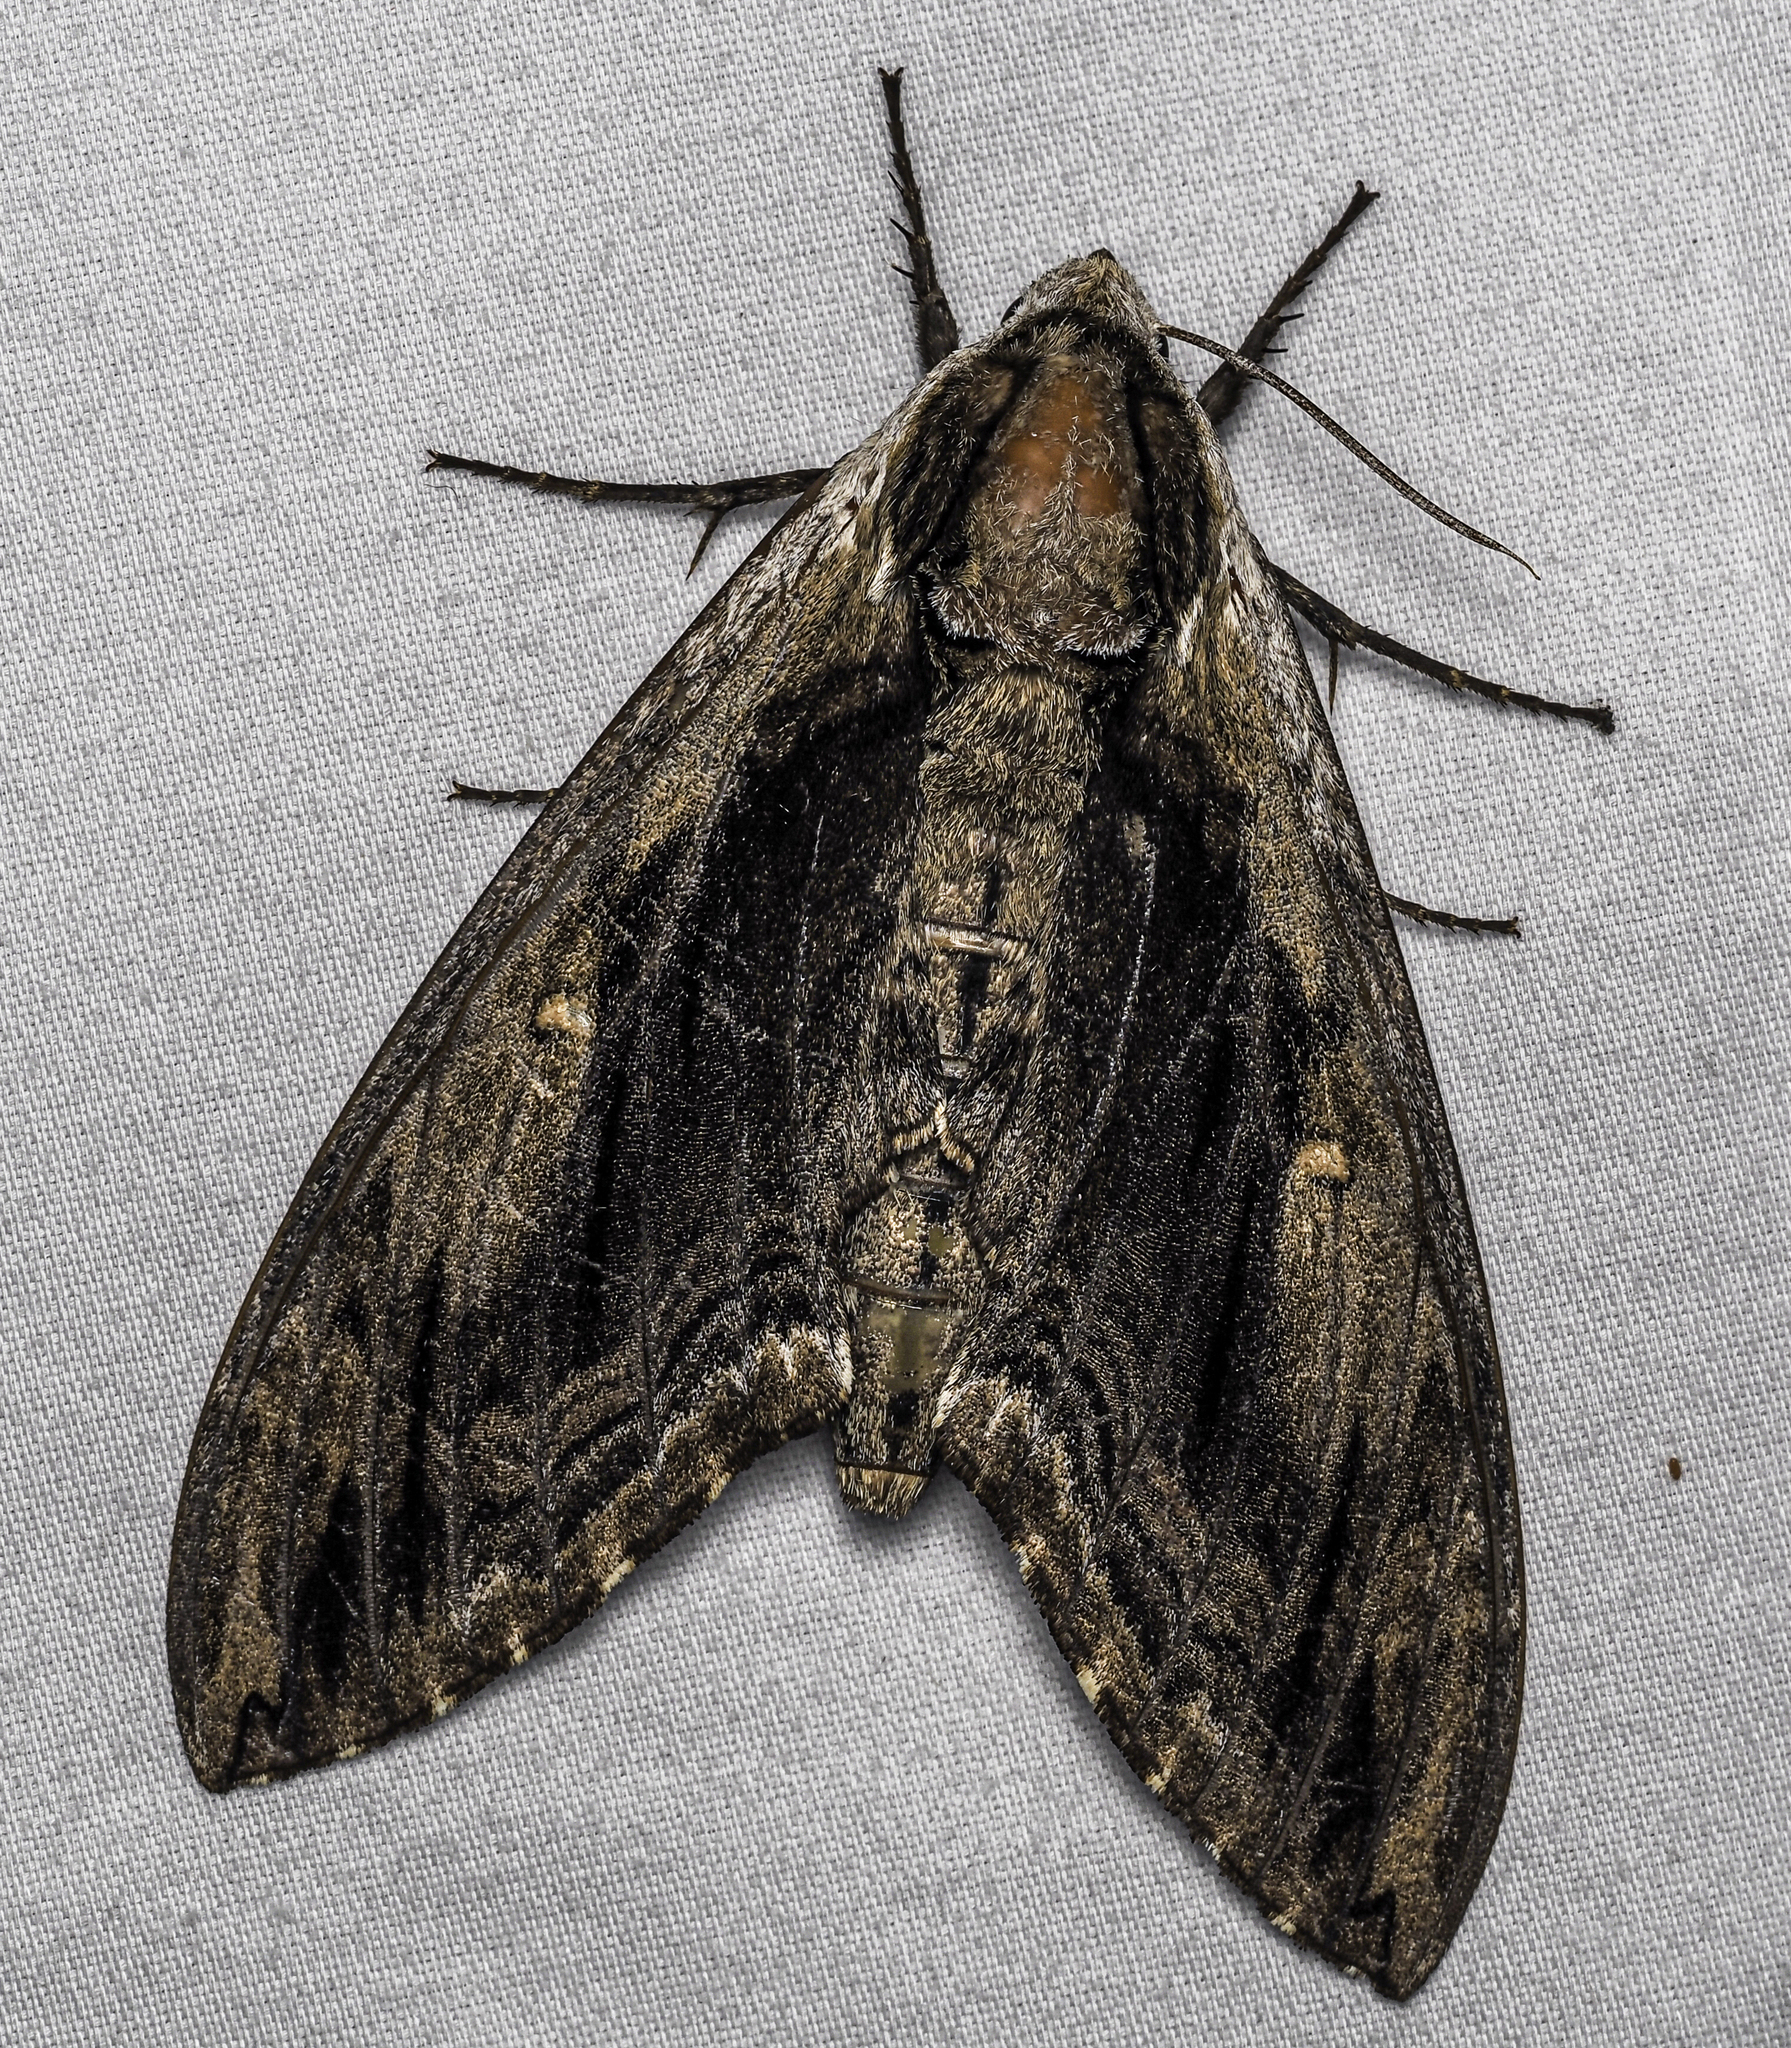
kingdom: Animalia
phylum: Arthropoda
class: Insecta
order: Lepidoptera
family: Sphingidae
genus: Ceratomia
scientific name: Ceratomia amyntor
